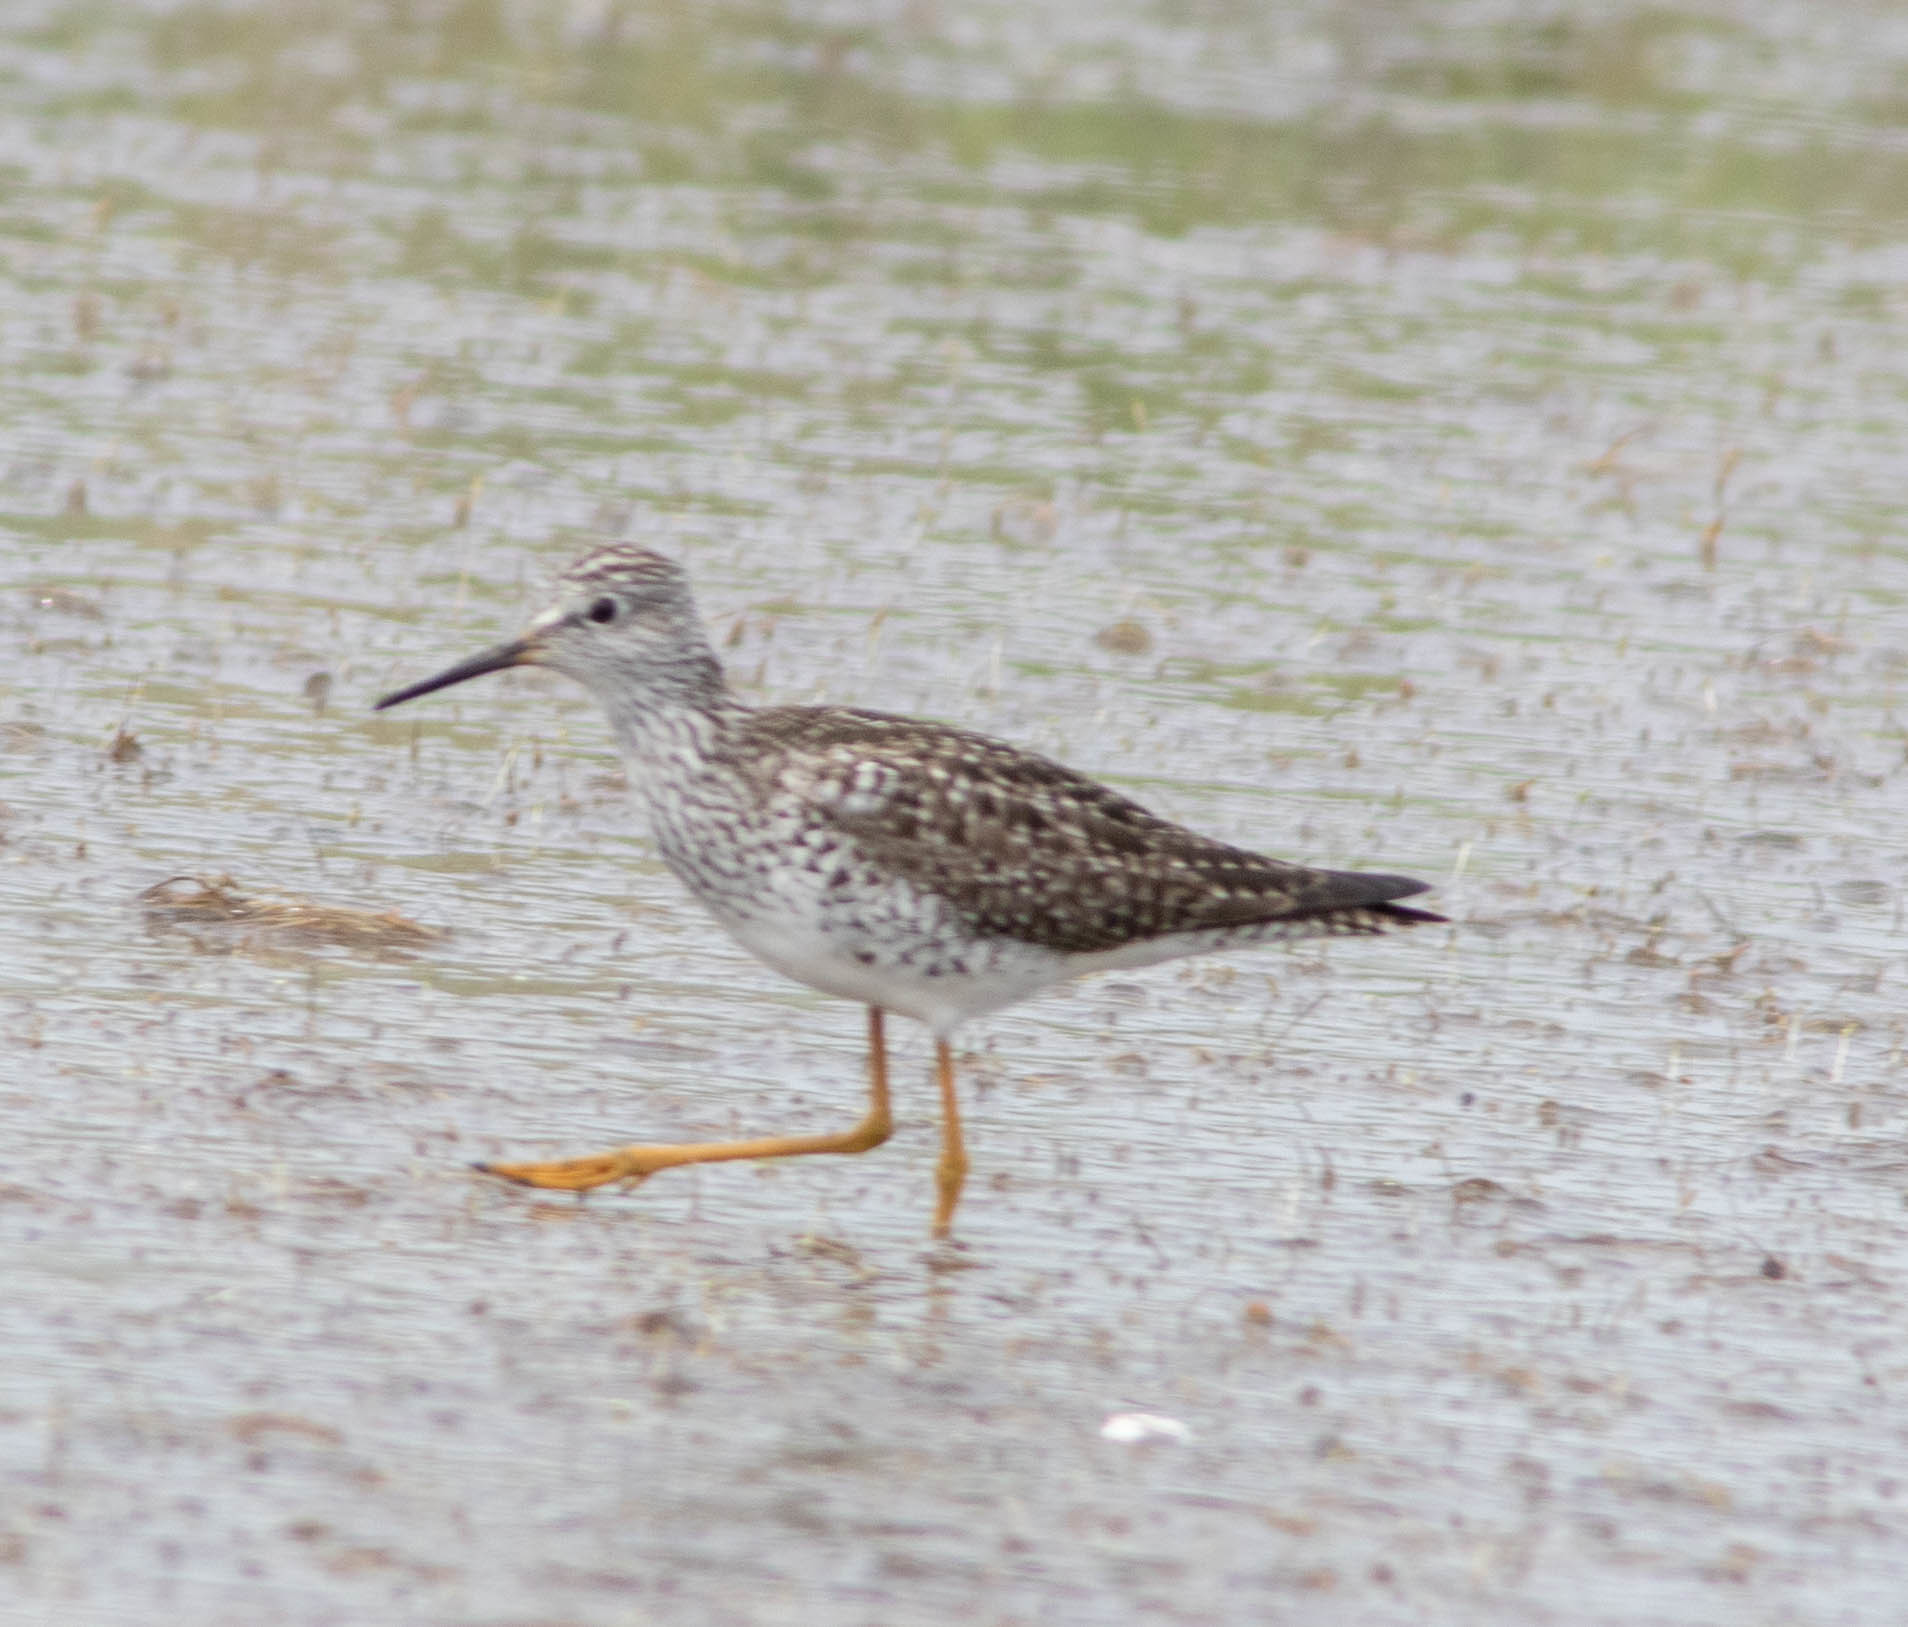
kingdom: Animalia
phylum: Chordata
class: Aves
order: Charadriiformes
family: Scolopacidae
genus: Tringa
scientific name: Tringa flavipes
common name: Lesser yellowlegs
